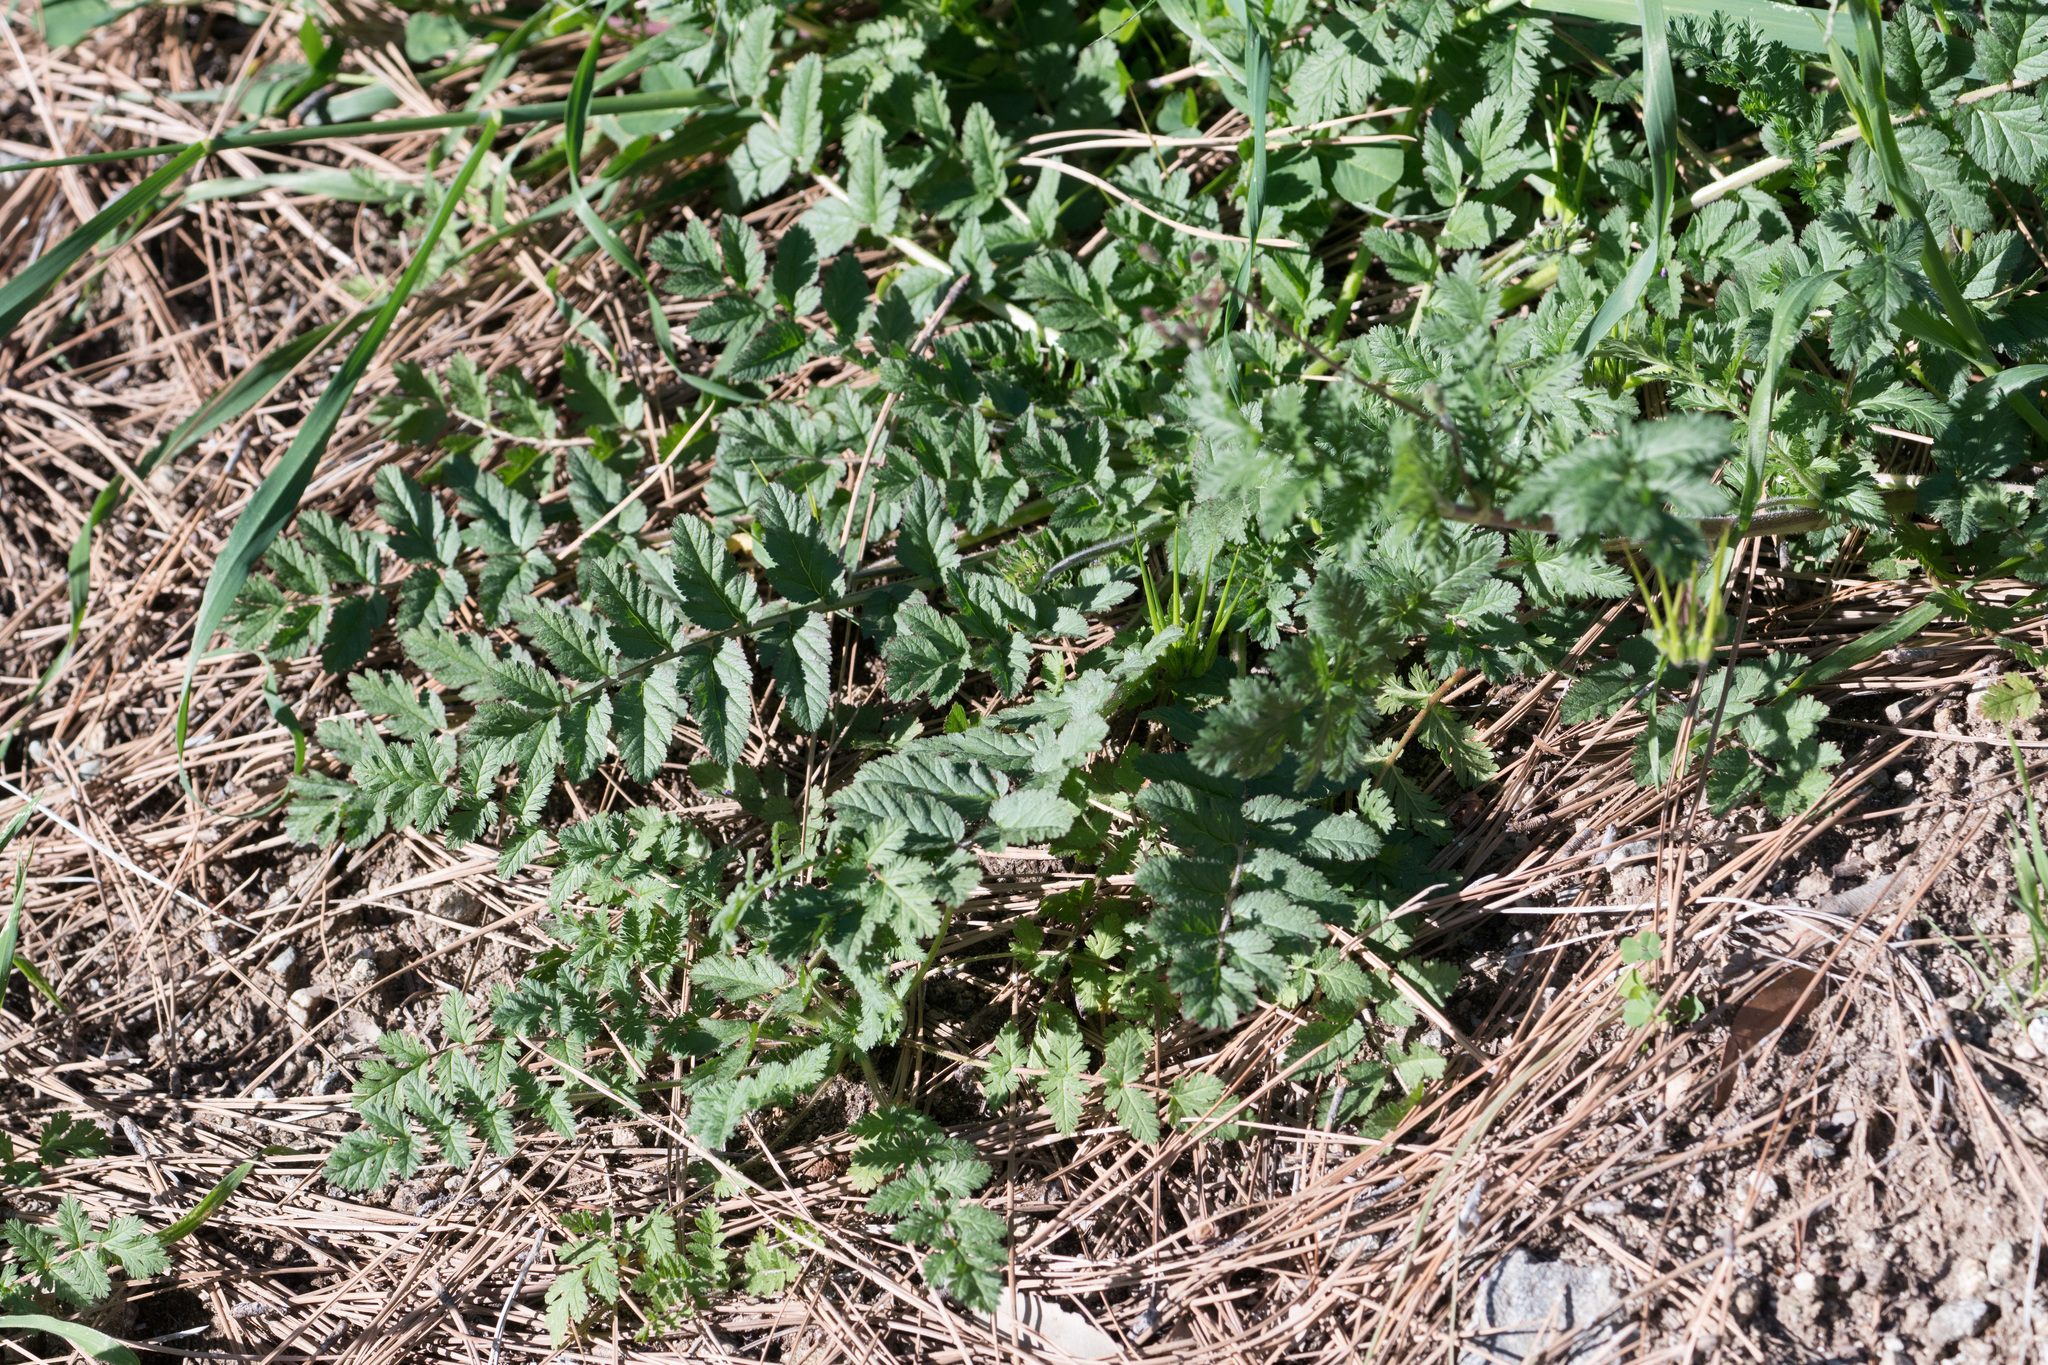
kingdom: Plantae
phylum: Tracheophyta
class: Magnoliopsida
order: Geraniales
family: Geraniaceae
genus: Erodium
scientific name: Erodium moschatum
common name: Musk stork's-bill
